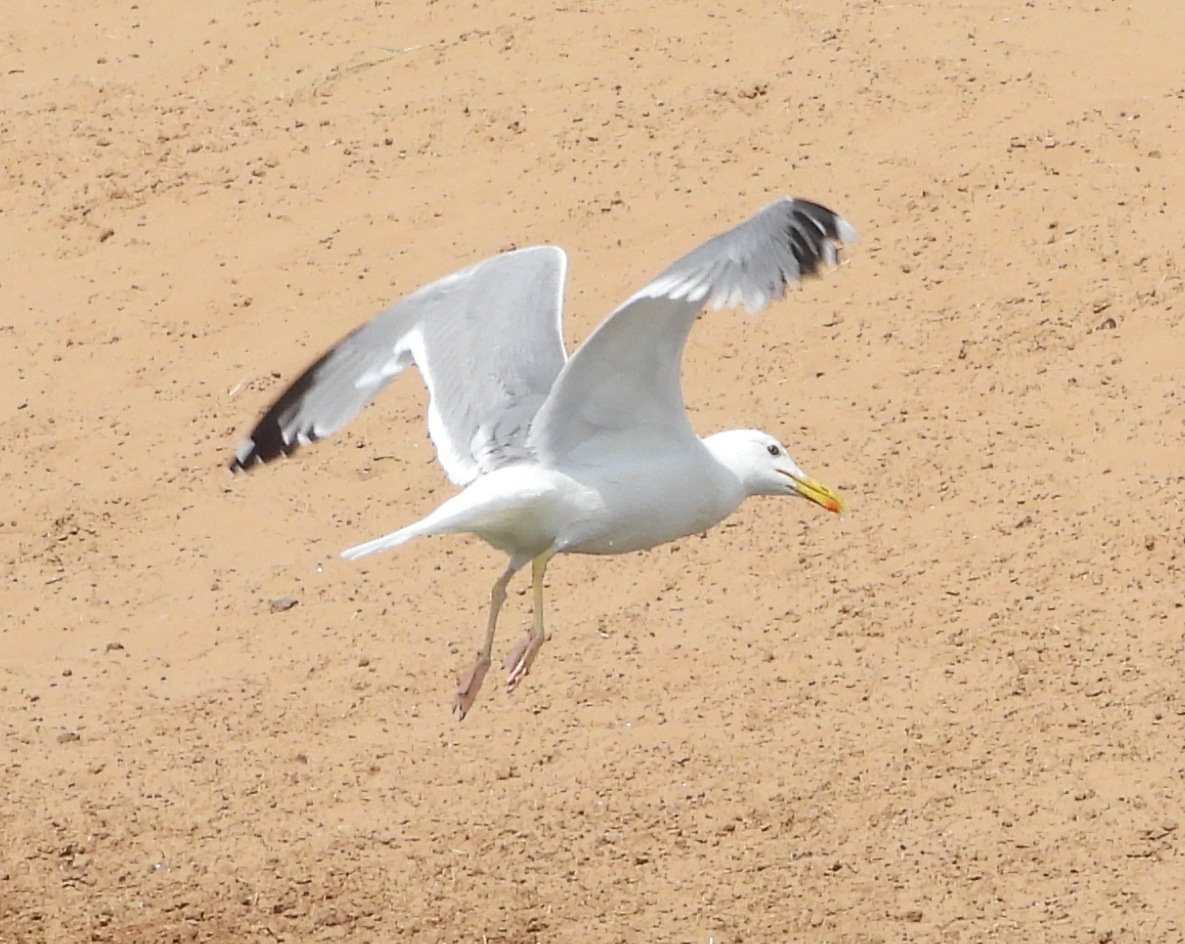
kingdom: Animalia
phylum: Chordata
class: Aves
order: Charadriiformes
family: Laridae
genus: Larus
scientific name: Larus cachinnans
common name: Caspian gull
